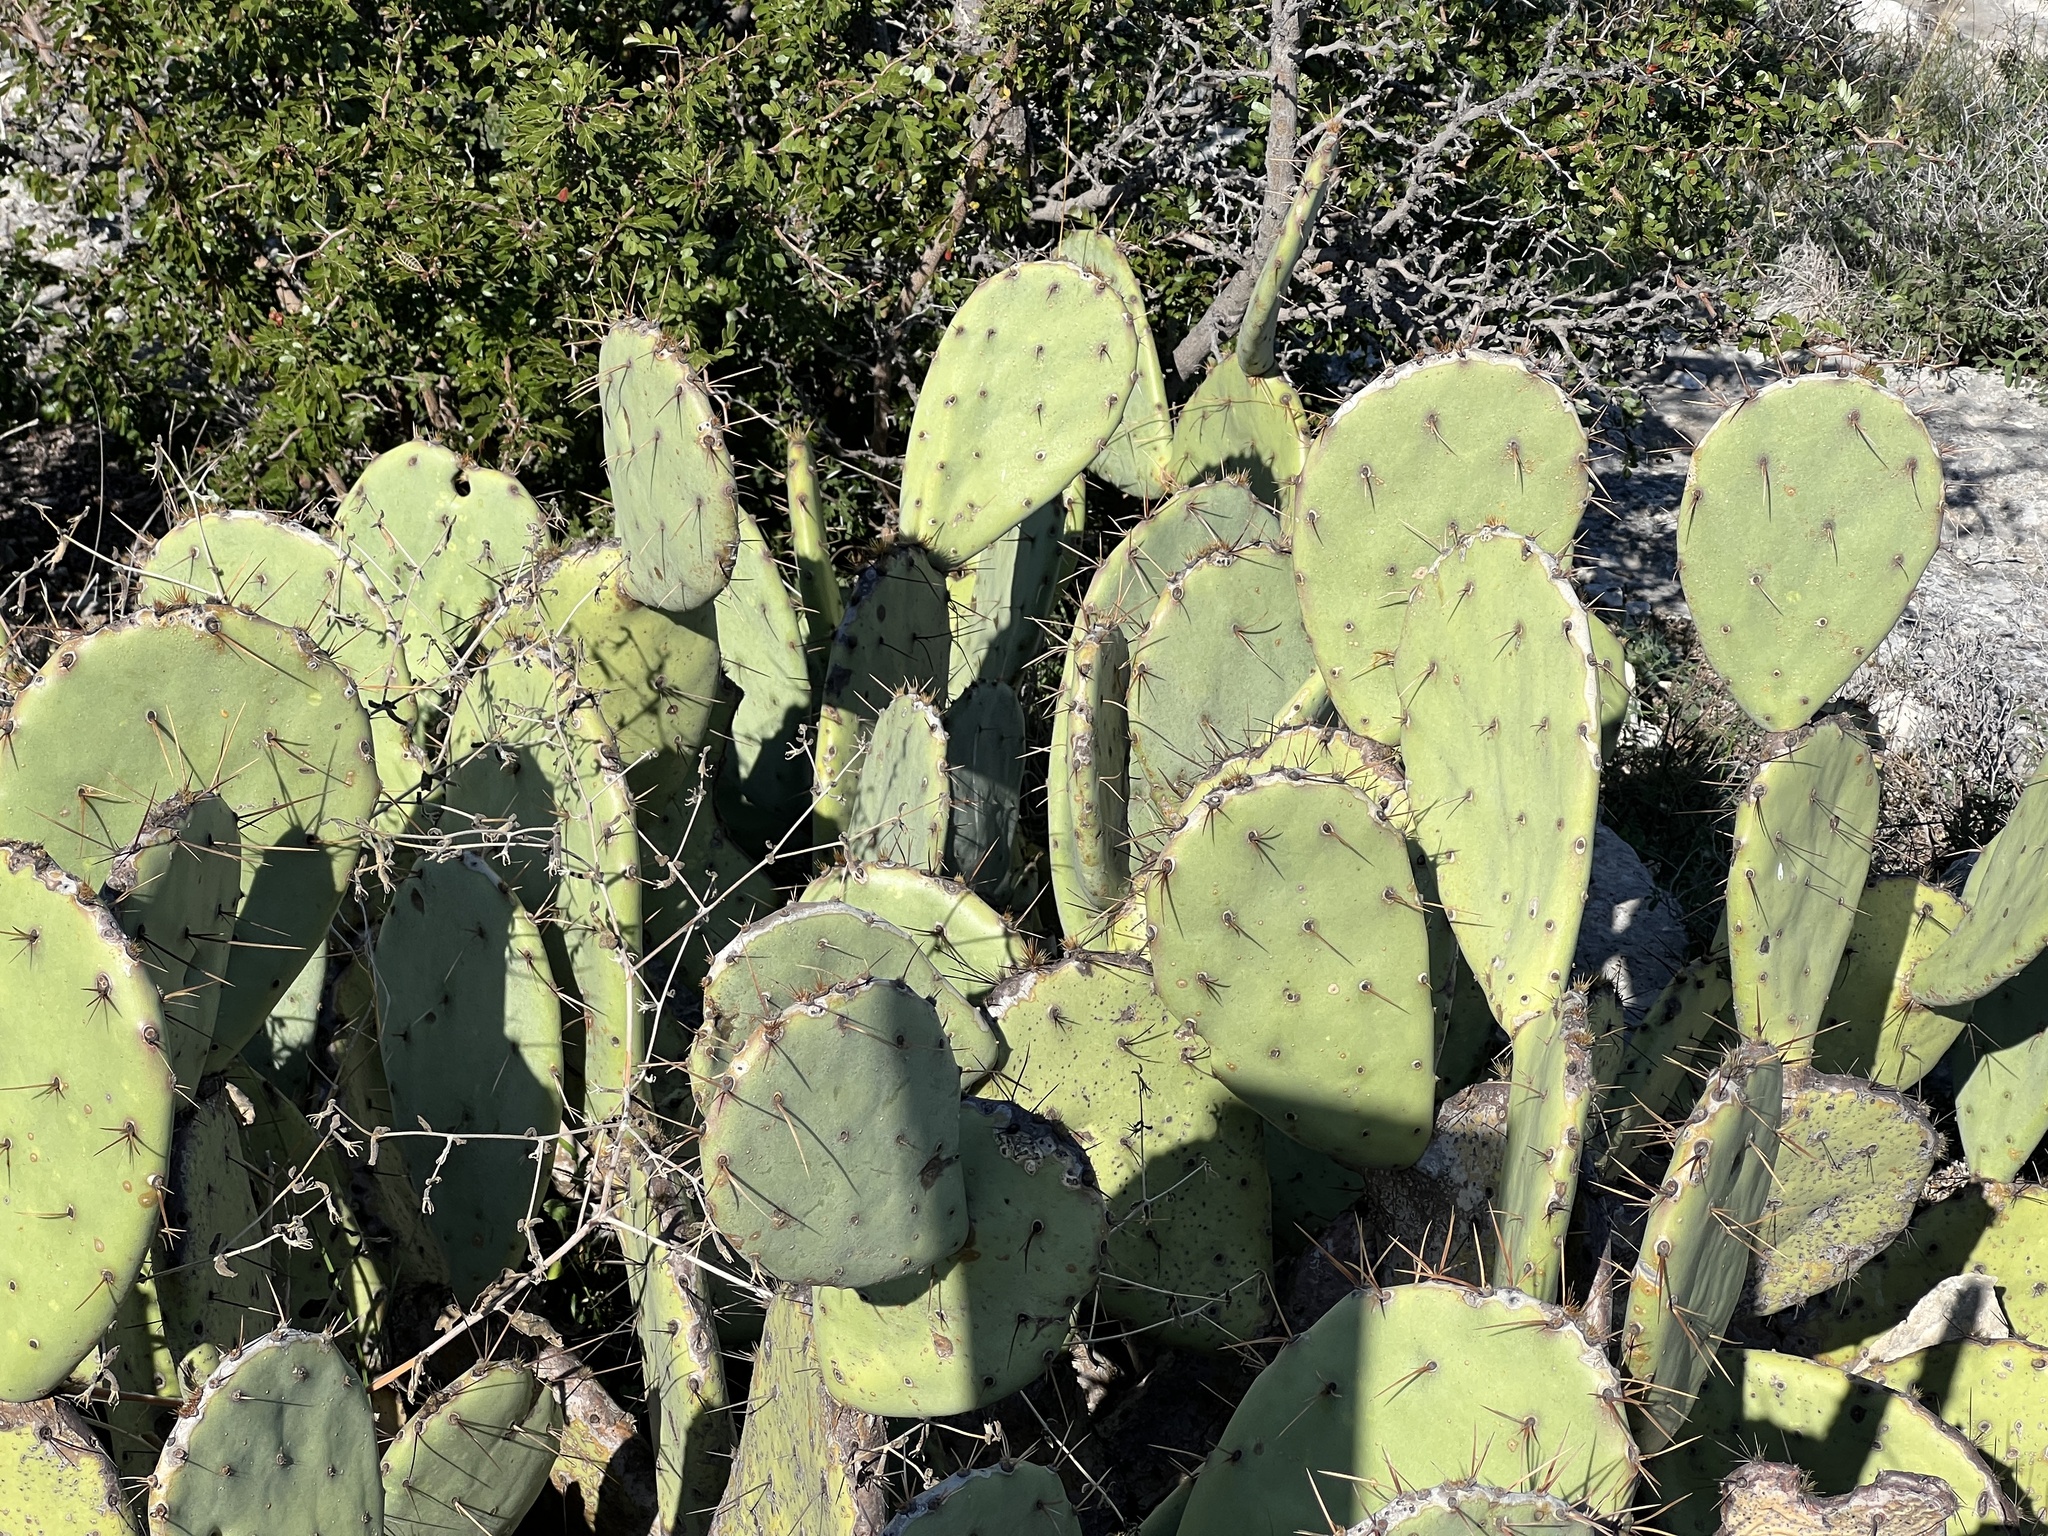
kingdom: Plantae
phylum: Tracheophyta
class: Magnoliopsida
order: Caryophyllales
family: Cactaceae
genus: Opuntia
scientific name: Opuntia macrorhiza
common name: Grassland pricklypear
